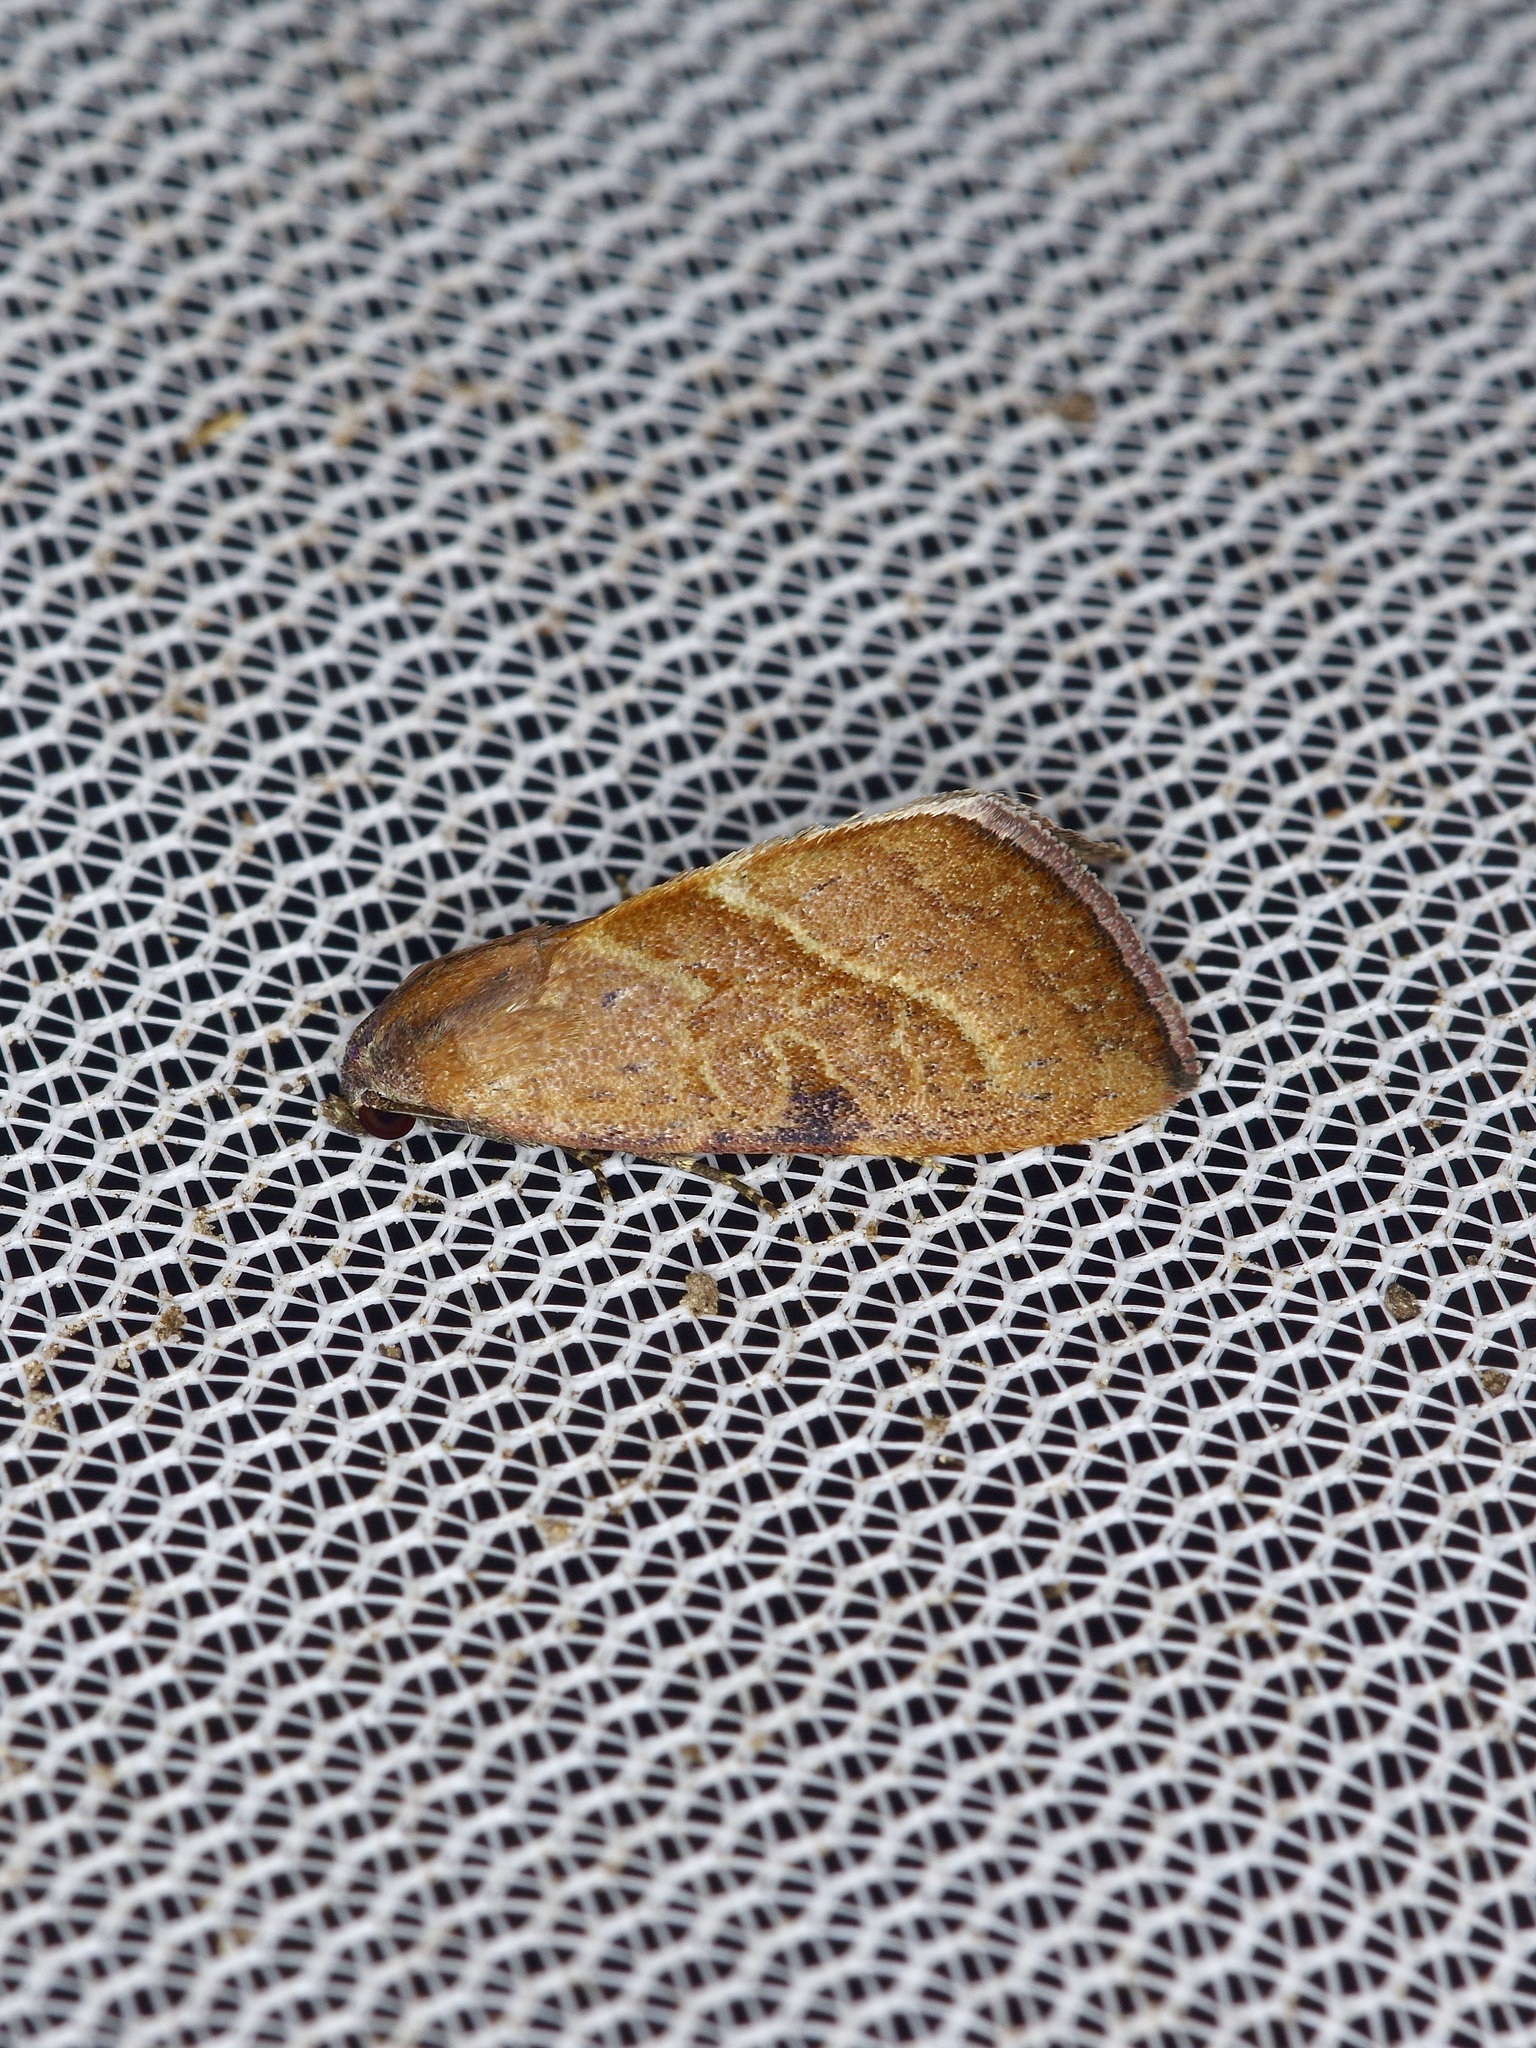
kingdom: Animalia
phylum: Arthropoda
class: Insecta
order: Lepidoptera
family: Noctuidae
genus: Galgula
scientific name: Galgula partita
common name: Wedgeling
